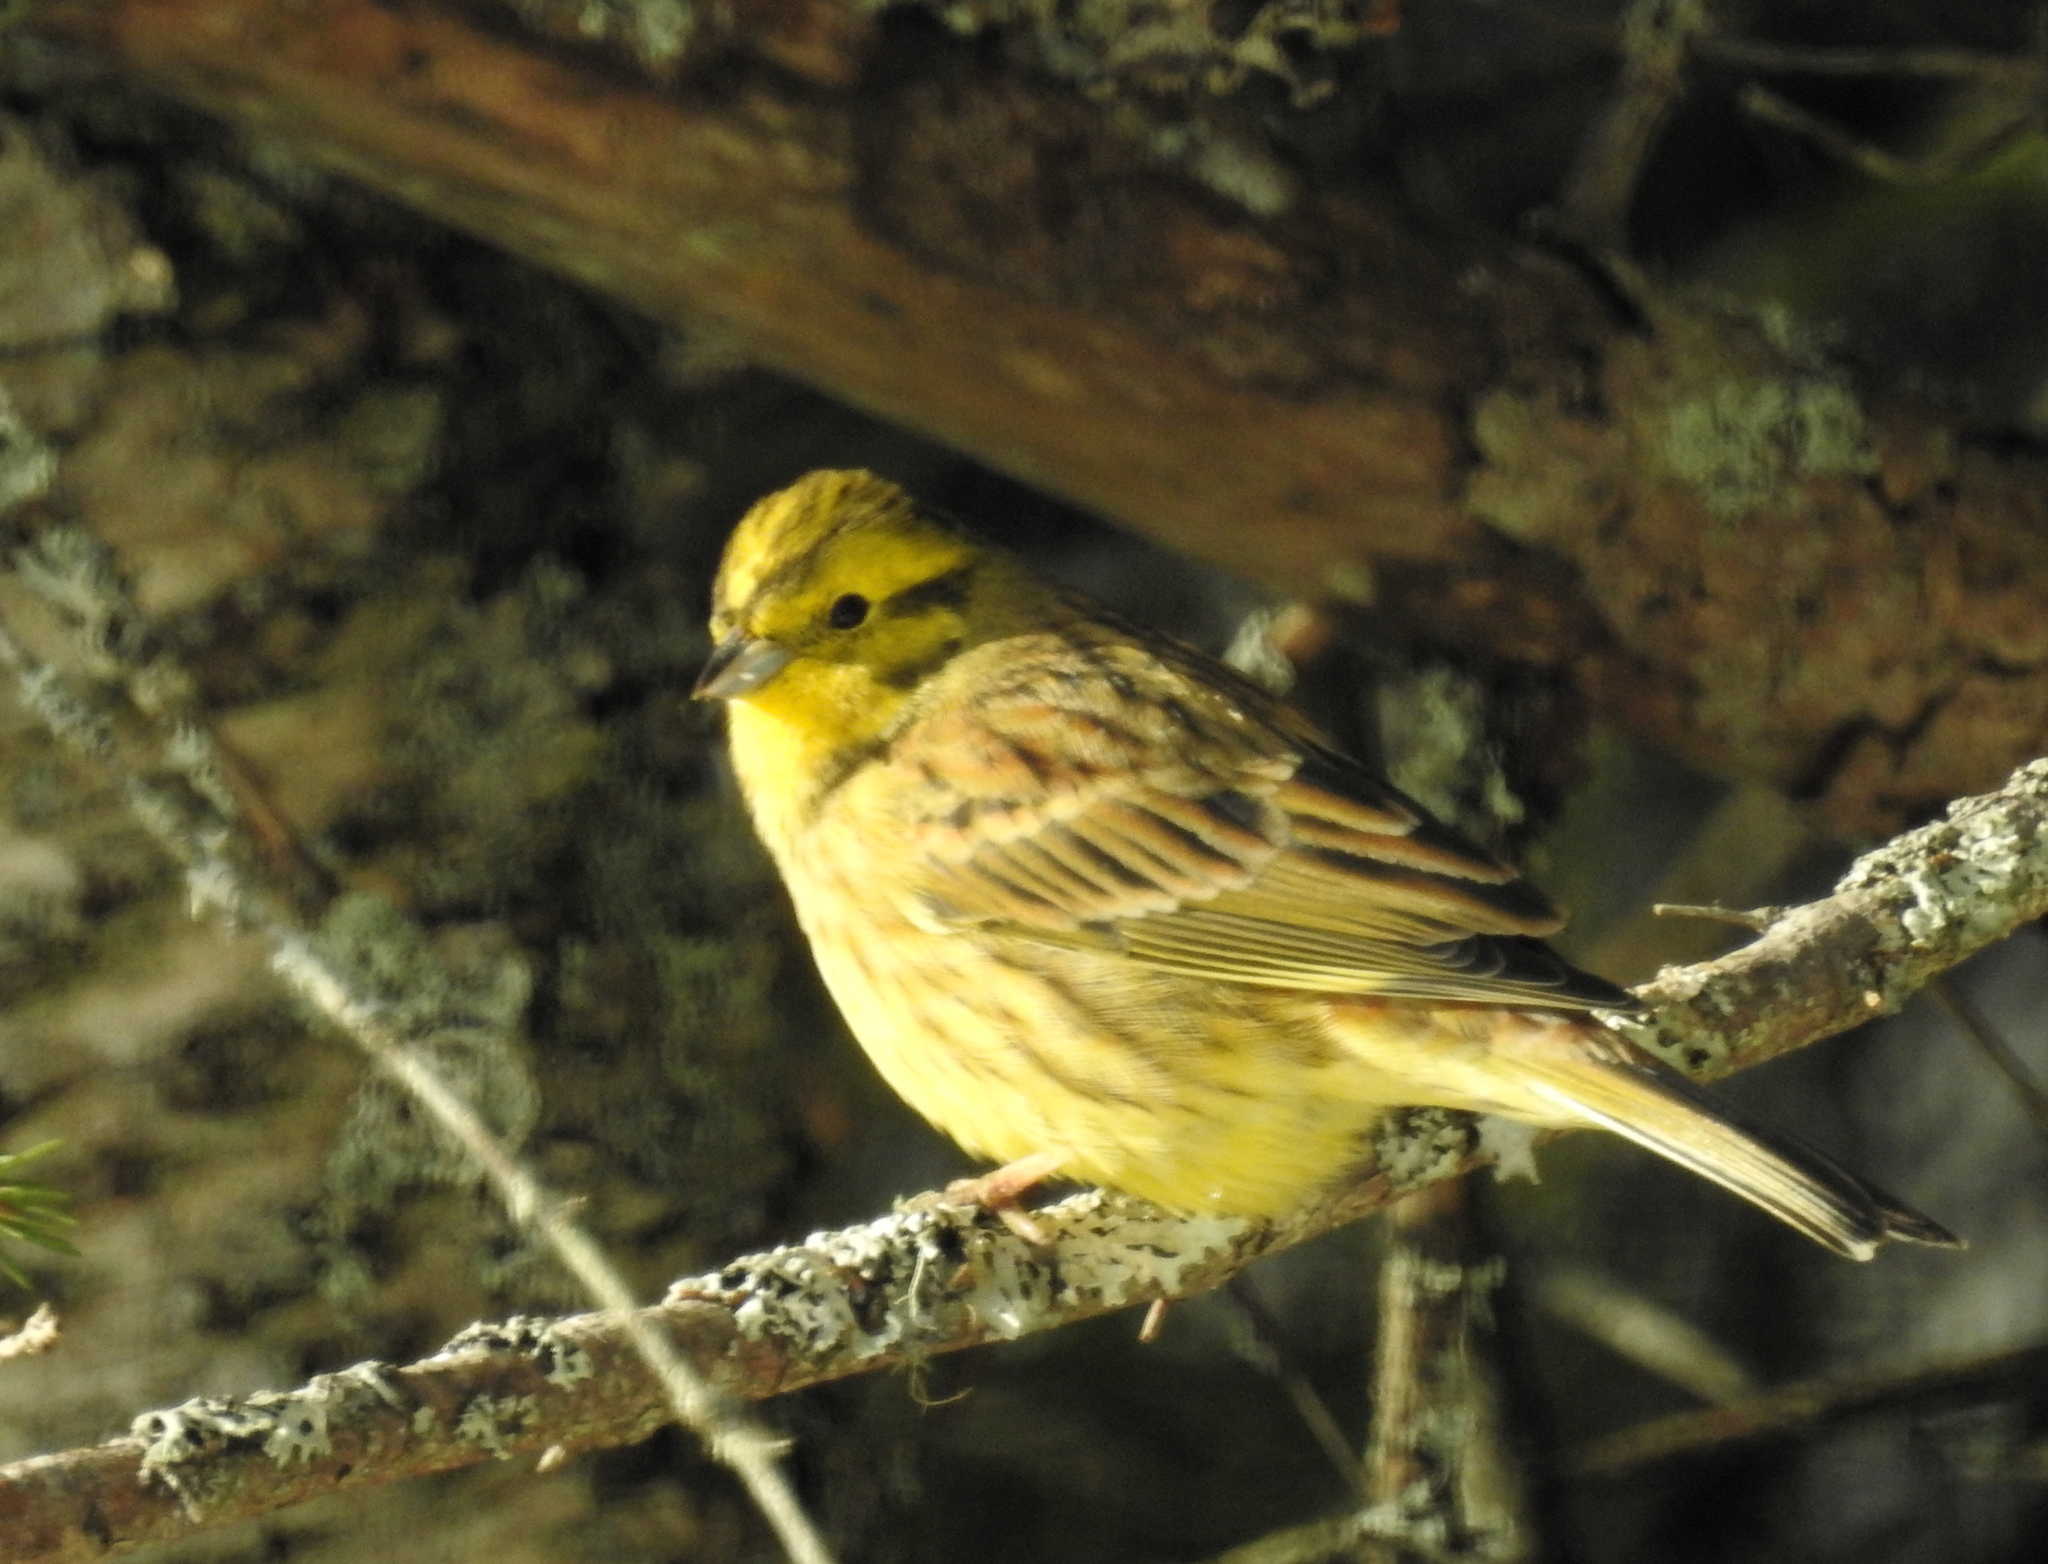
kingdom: Animalia
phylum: Chordata
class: Aves
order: Passeriformes
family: Emberizidae
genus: Emberiza
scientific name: Emberiza citrinella
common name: Yellowhammer
